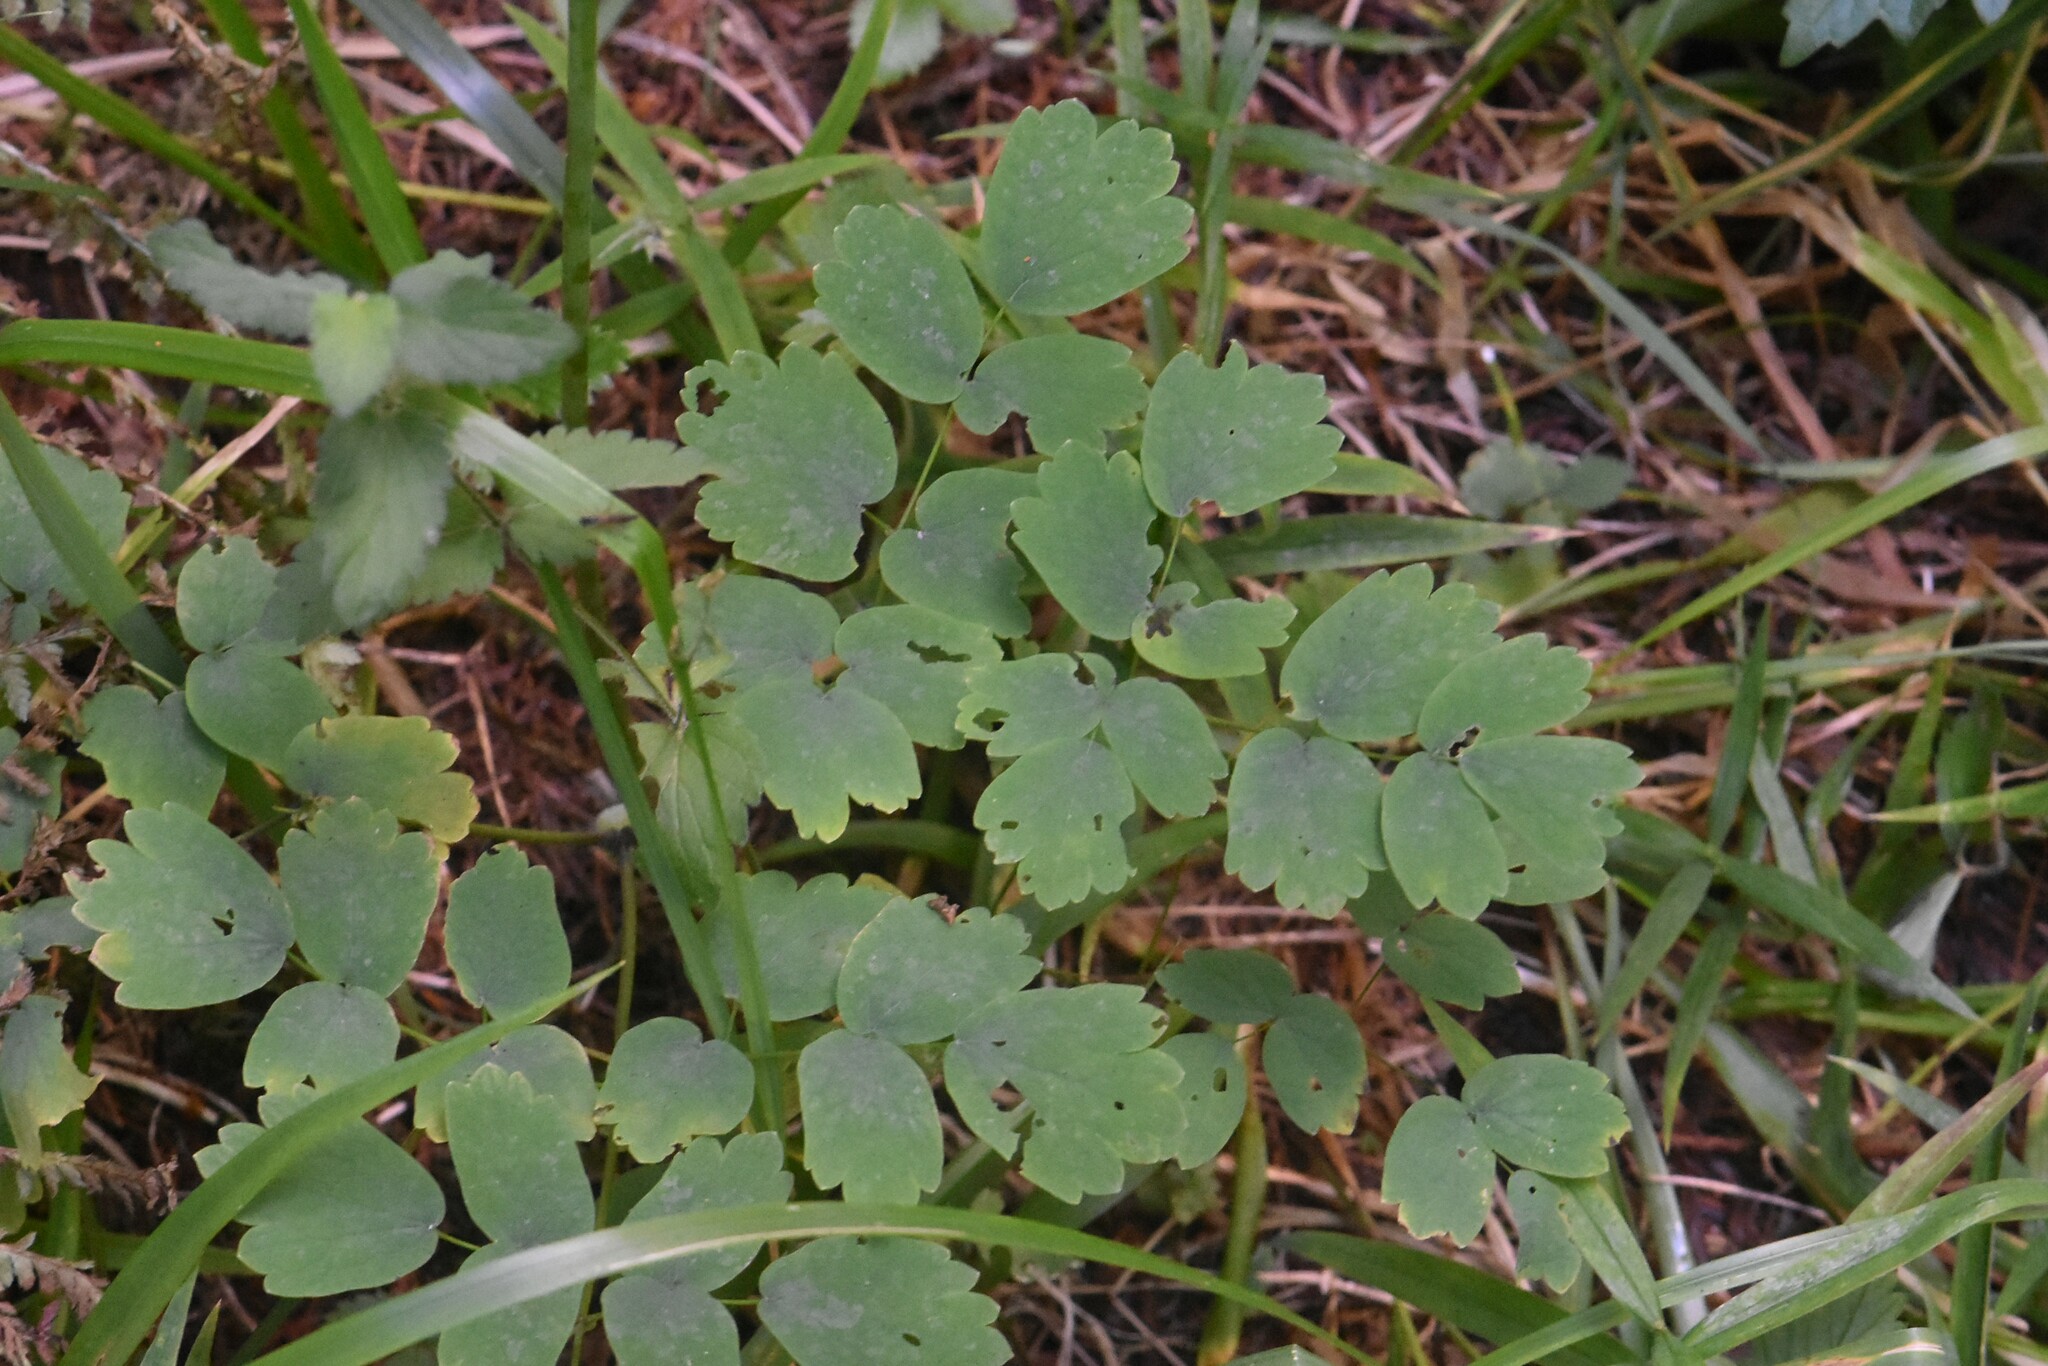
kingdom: Plantae
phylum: Tracheophyta
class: Magnoliopsida
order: Ranunculales
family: Ranunculaceae
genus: Thalictrum
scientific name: Thalictrum aquilegiifolium
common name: French meadow-rue
